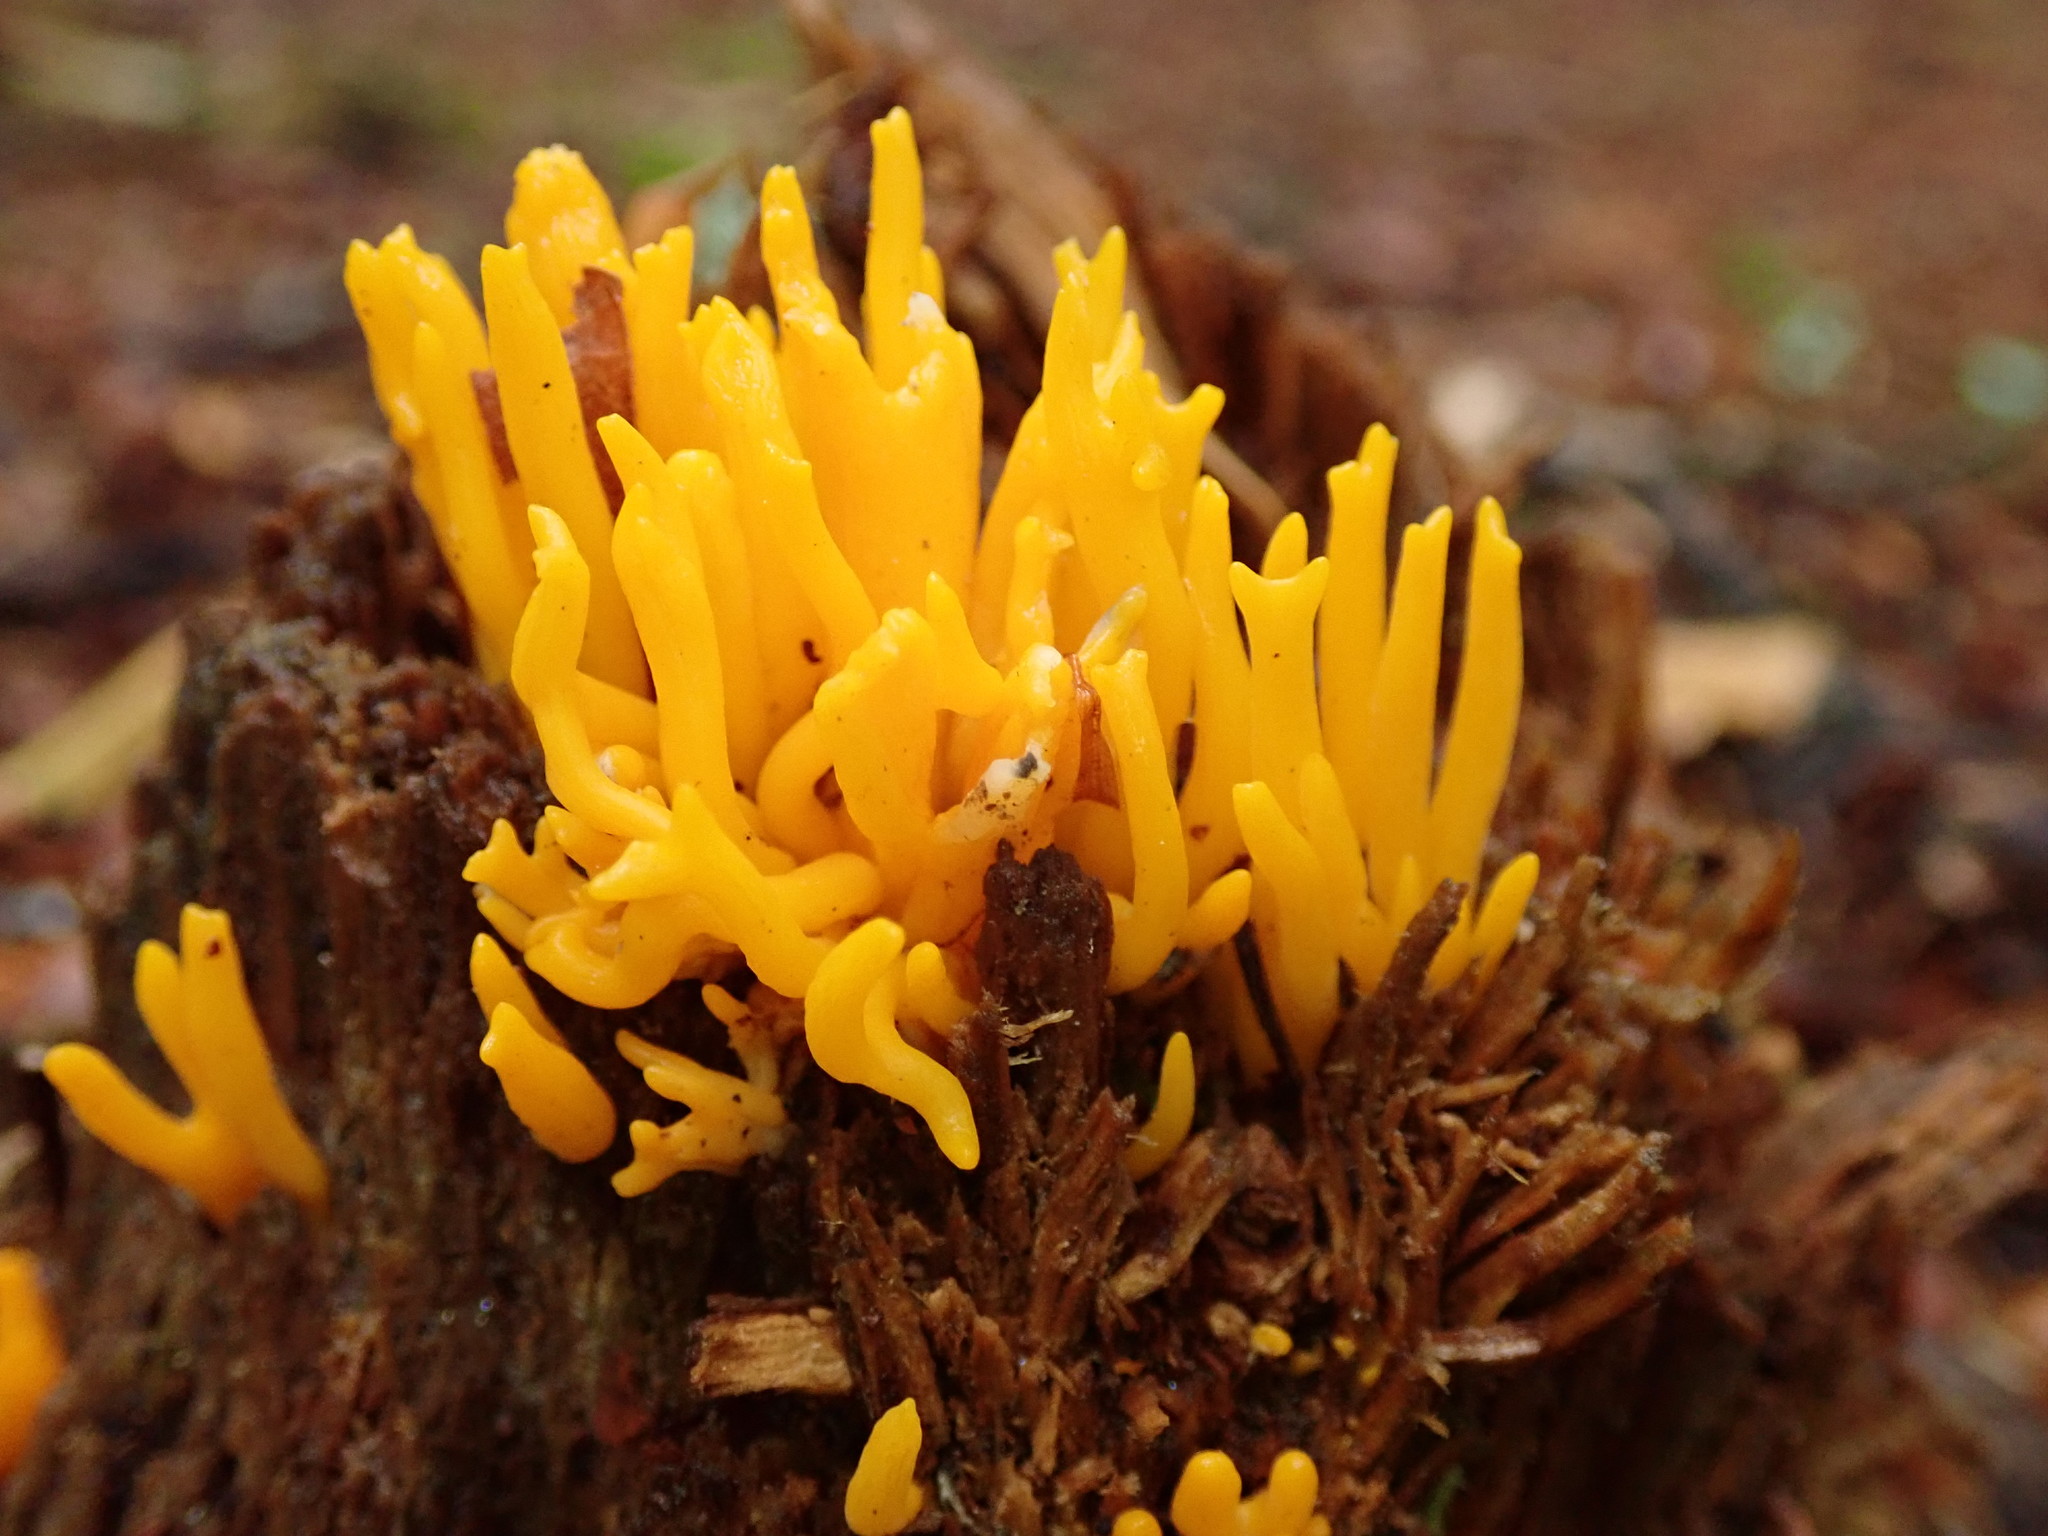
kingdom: Fungi
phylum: Basidiomycota
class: Dacrymycetes
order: Dacrymycetales
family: Dacrymycetaceae
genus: Calocera
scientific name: Calocera viscosa
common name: Yellow stagshorn
